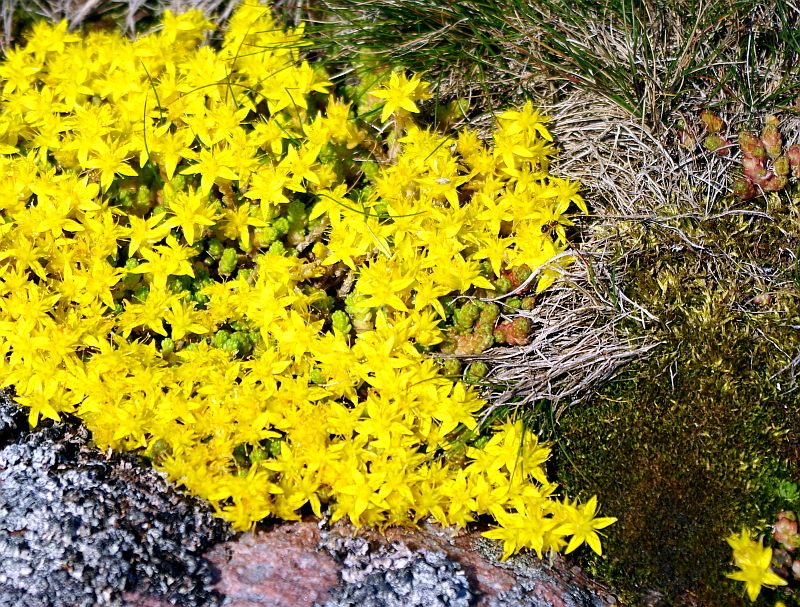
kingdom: Plantae
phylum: Tracheophyta
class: Magnoliopsida
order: Saxifragales
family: Crassulaceae
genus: Sedum
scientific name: Sedum acre
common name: Biting stonecrop
